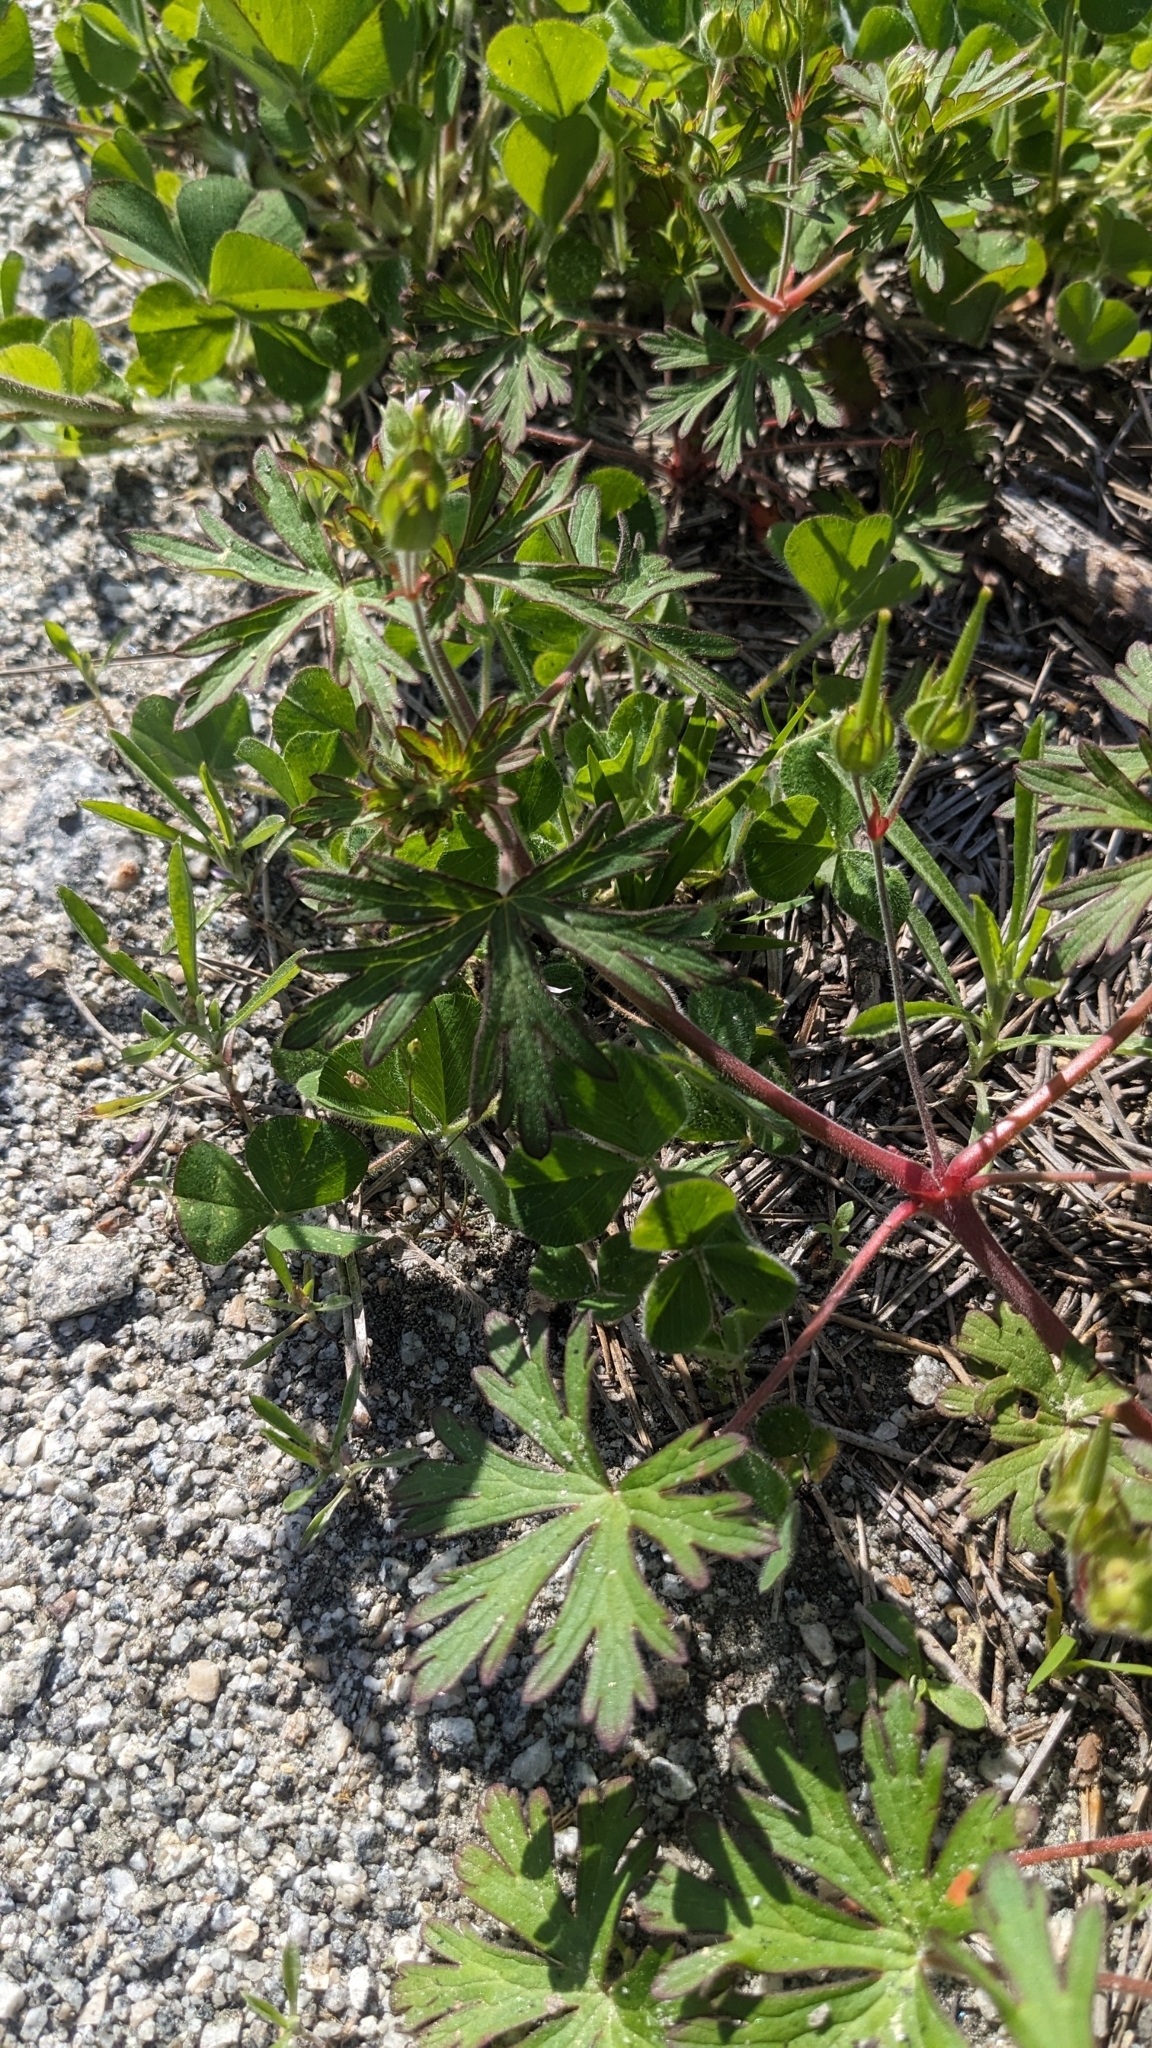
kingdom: Plantae
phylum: Tracheophyta
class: Magnoliopsida
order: Geraniales
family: Geraniaceae
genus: Geranium
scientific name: Geranium carolinianum
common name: Carolina crane's-bill
